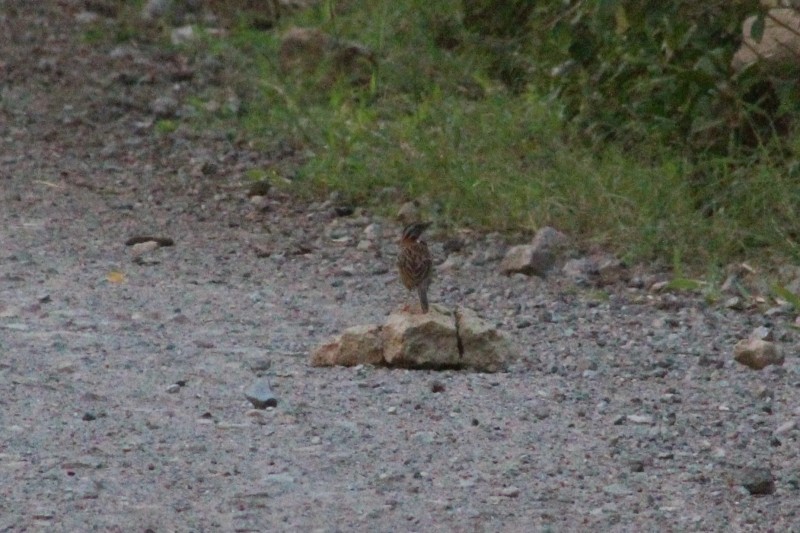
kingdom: Animalia
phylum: Chordata
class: Aves
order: Passeriformes
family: Passerellidae
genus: Zonotrichia
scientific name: Zonotrichia capensis
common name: Rufous-collared sparrow
